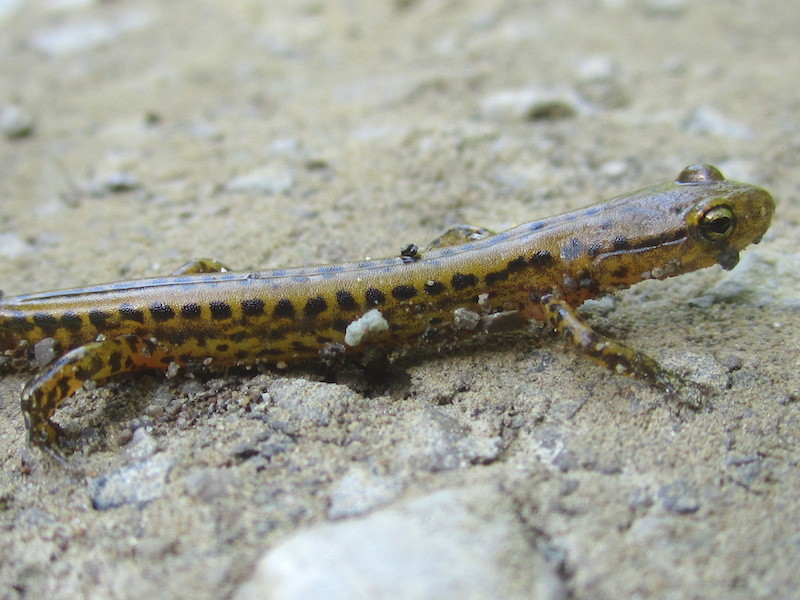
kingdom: Animalia
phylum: Chordata
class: Amphibia
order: Caudata
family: Plethodontidae
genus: Eurycea
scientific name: Eurycea longicauda
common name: Long-tailed salamander
